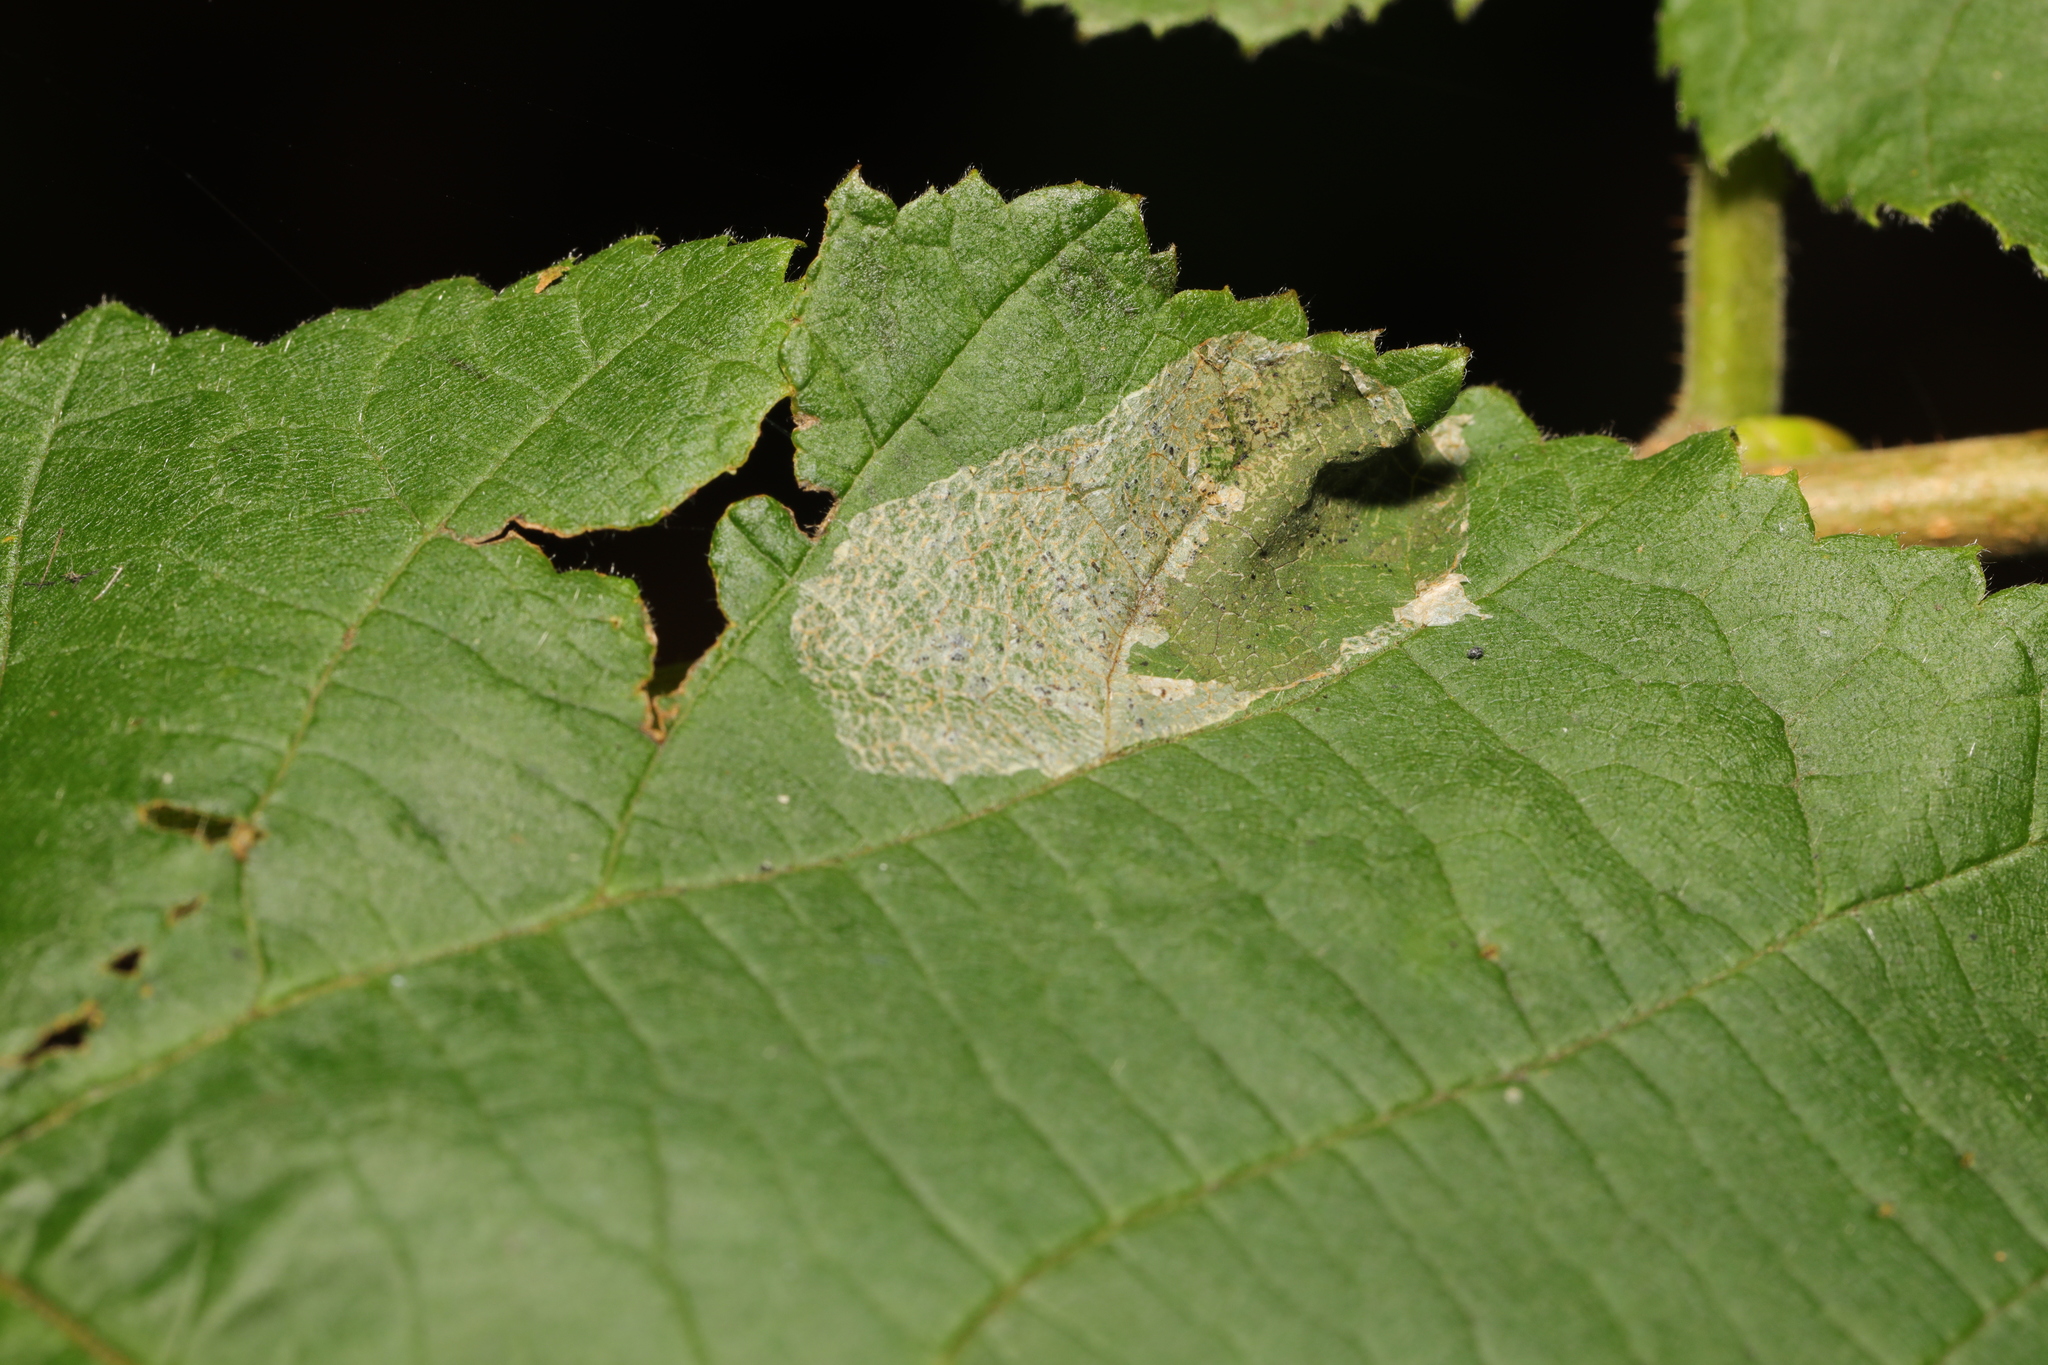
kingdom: Animalia
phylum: Arthropoda
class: Insecta
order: Lepidoptera
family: Gracillariidae
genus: Phyllonorycter
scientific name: Phyllonorycter coryli
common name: Nut-leaf blister moth
